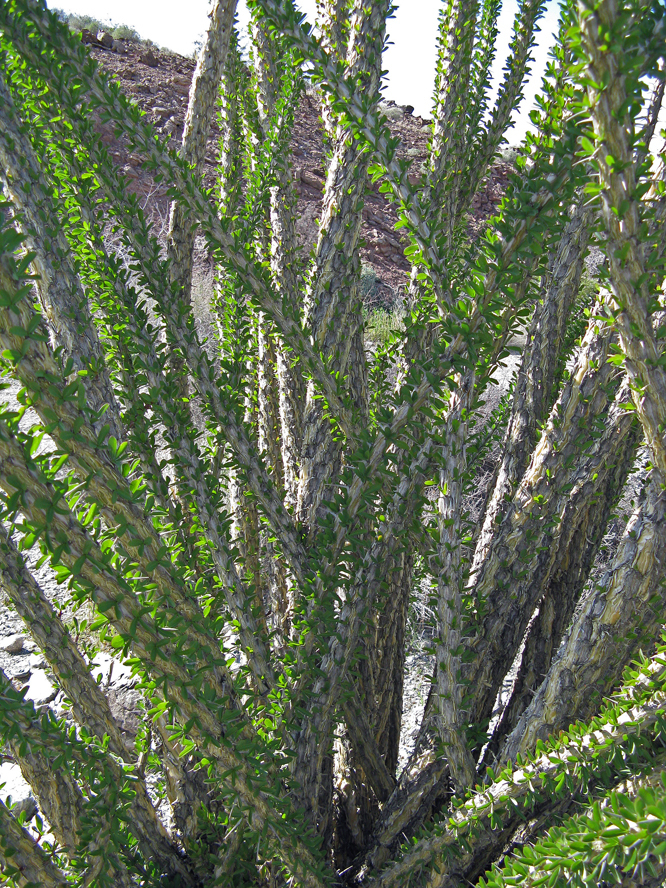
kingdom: Plantae
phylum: Tracheophyta
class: Magnoliopsida
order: Ericales
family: Fouquieriaceae
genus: Fouquieria
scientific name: Fouquieria splendens
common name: Vine-cactus
